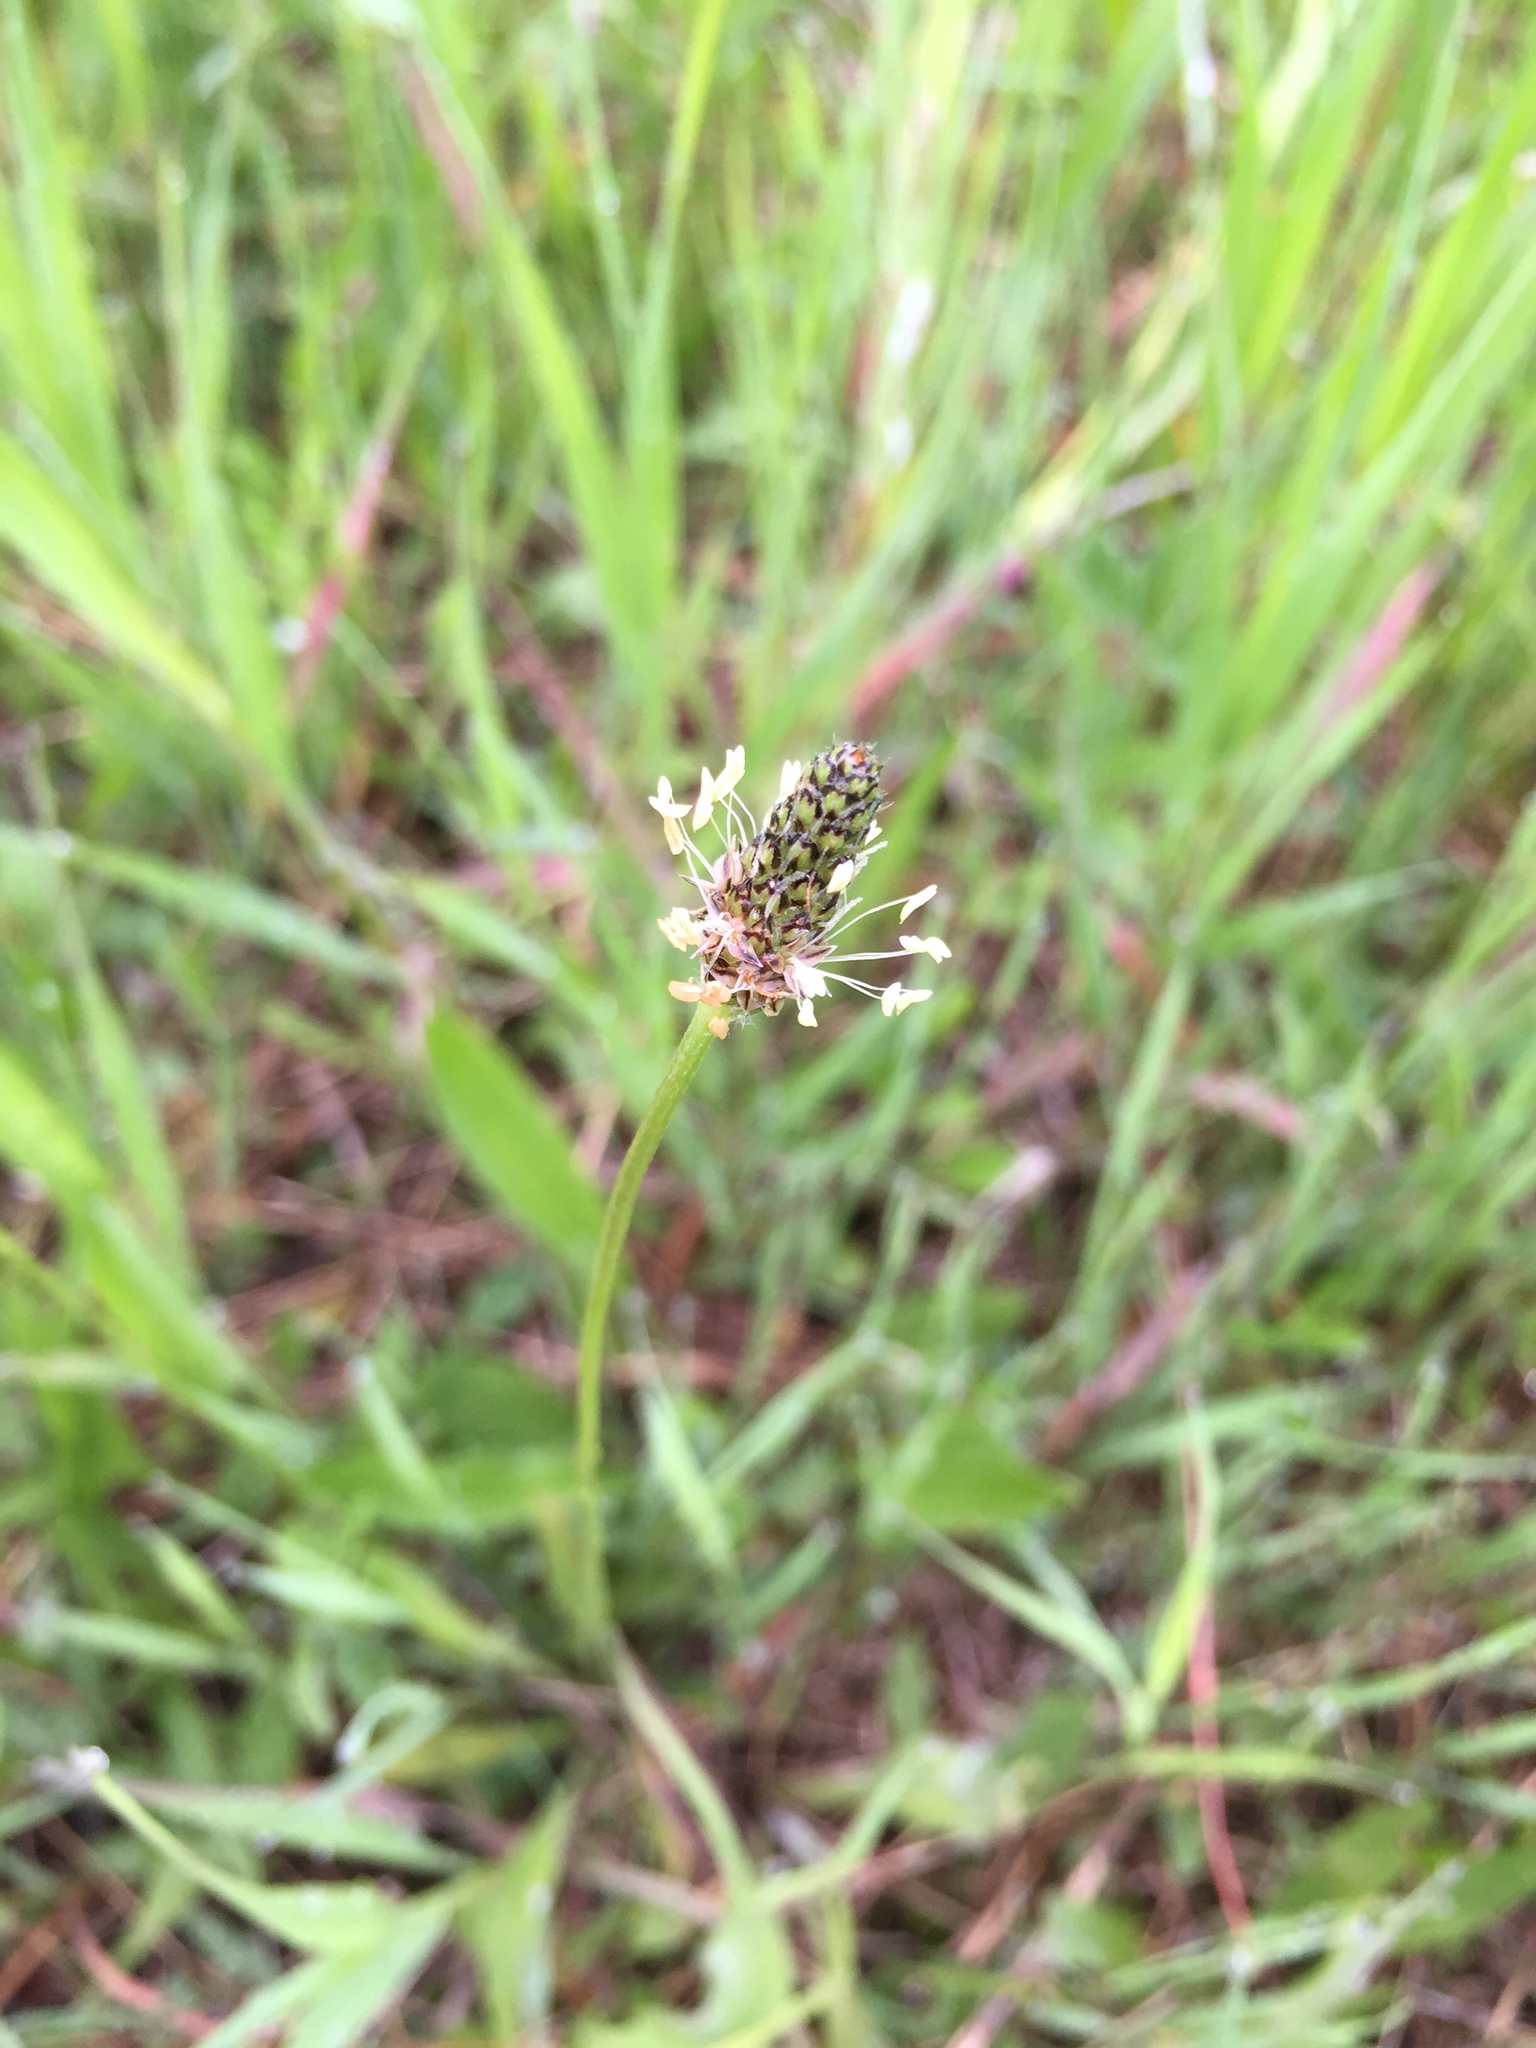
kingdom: Plantae
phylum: Tracheophyta
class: Magnoliopsida
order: Lamiales
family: Plantaginaceae
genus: Plantago
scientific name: Plantago lanceolata
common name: Ribwort plantain
